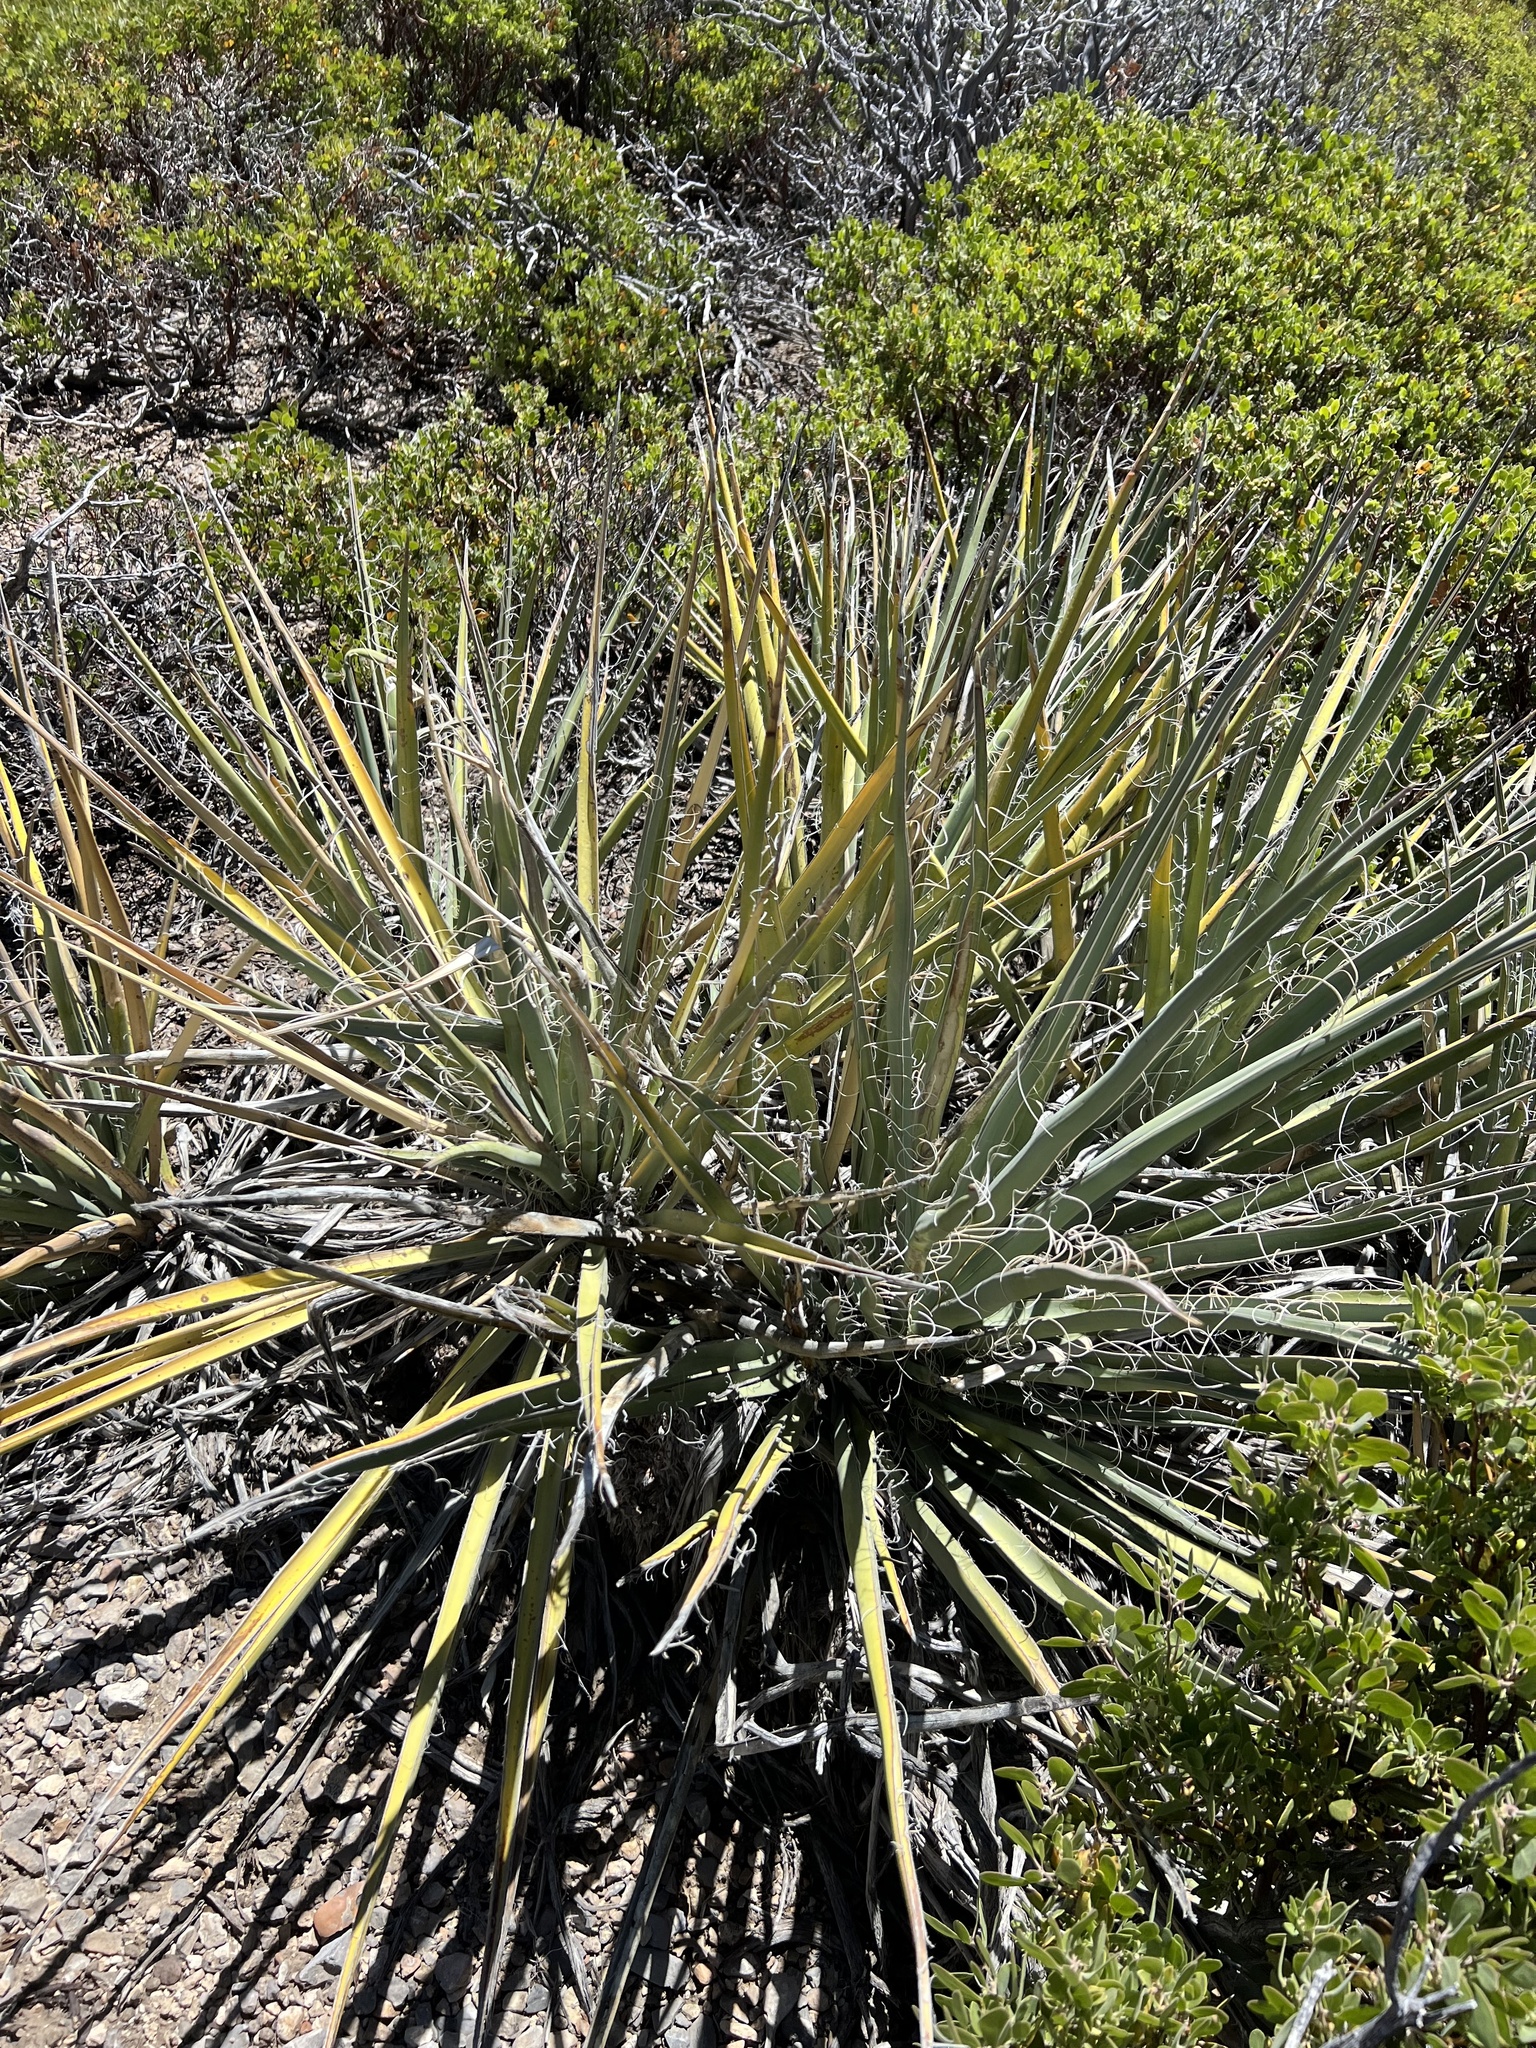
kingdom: Plantae
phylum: Tracheophyta
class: Liliopsida
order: Asparagales
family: Asparagaceae
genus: Yucca
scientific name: Yucca baccata
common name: Banana yucca
